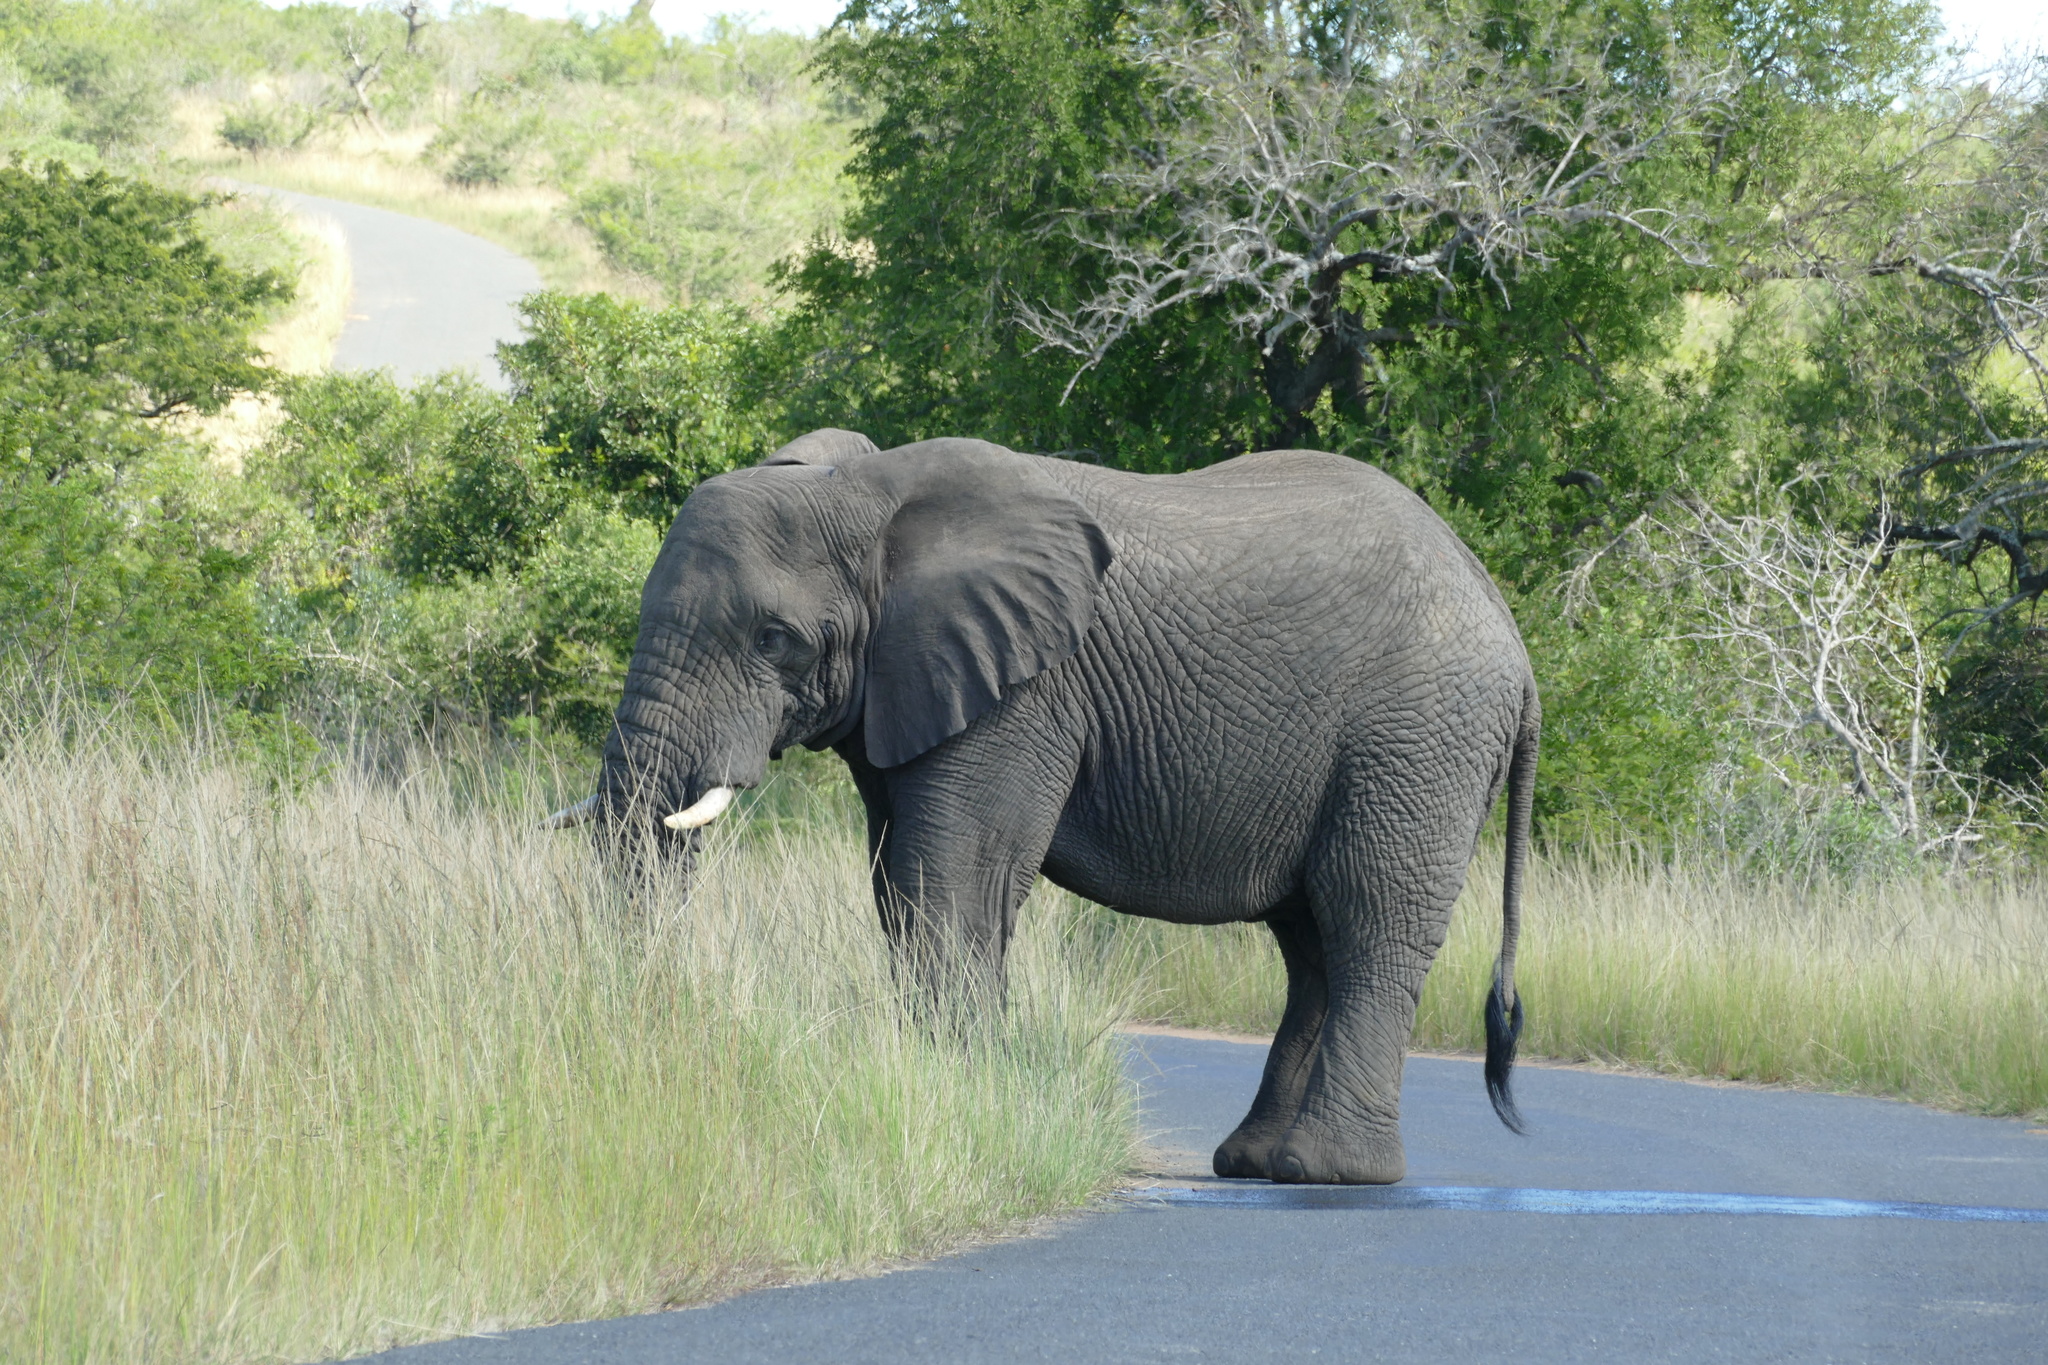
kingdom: Animalia
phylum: Chordata
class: Mammalia
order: Proboscidea
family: Elephantidae
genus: Loxodonta
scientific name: Loxodonta africana
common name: African elephant
